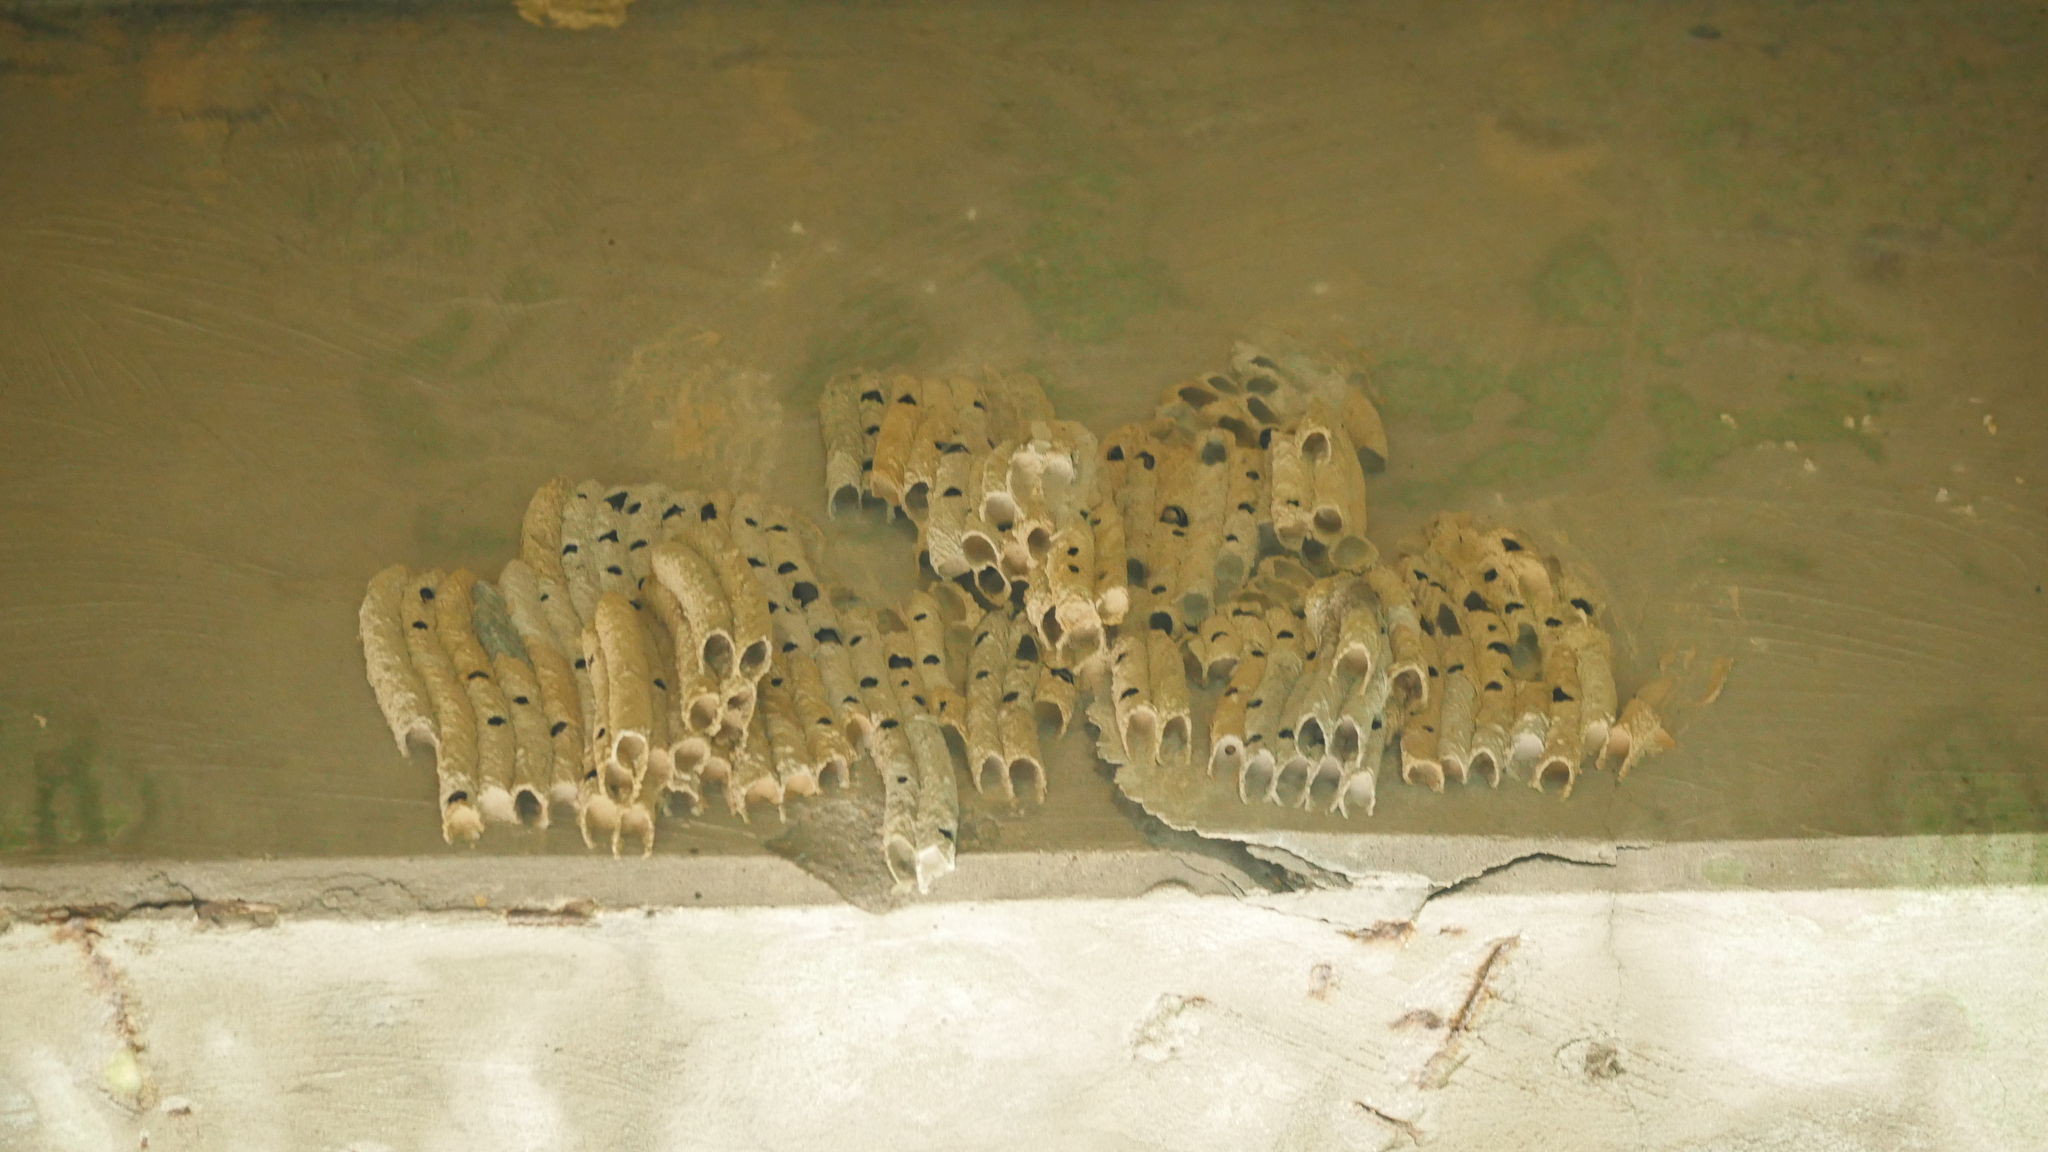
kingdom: Animalia
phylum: Arthropoda
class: Insecta
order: Hymenoptera
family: Crabronidae
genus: Trypoxylon
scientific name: Trypoxylon politum
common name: Organ-pipe mud-dauber wasp
